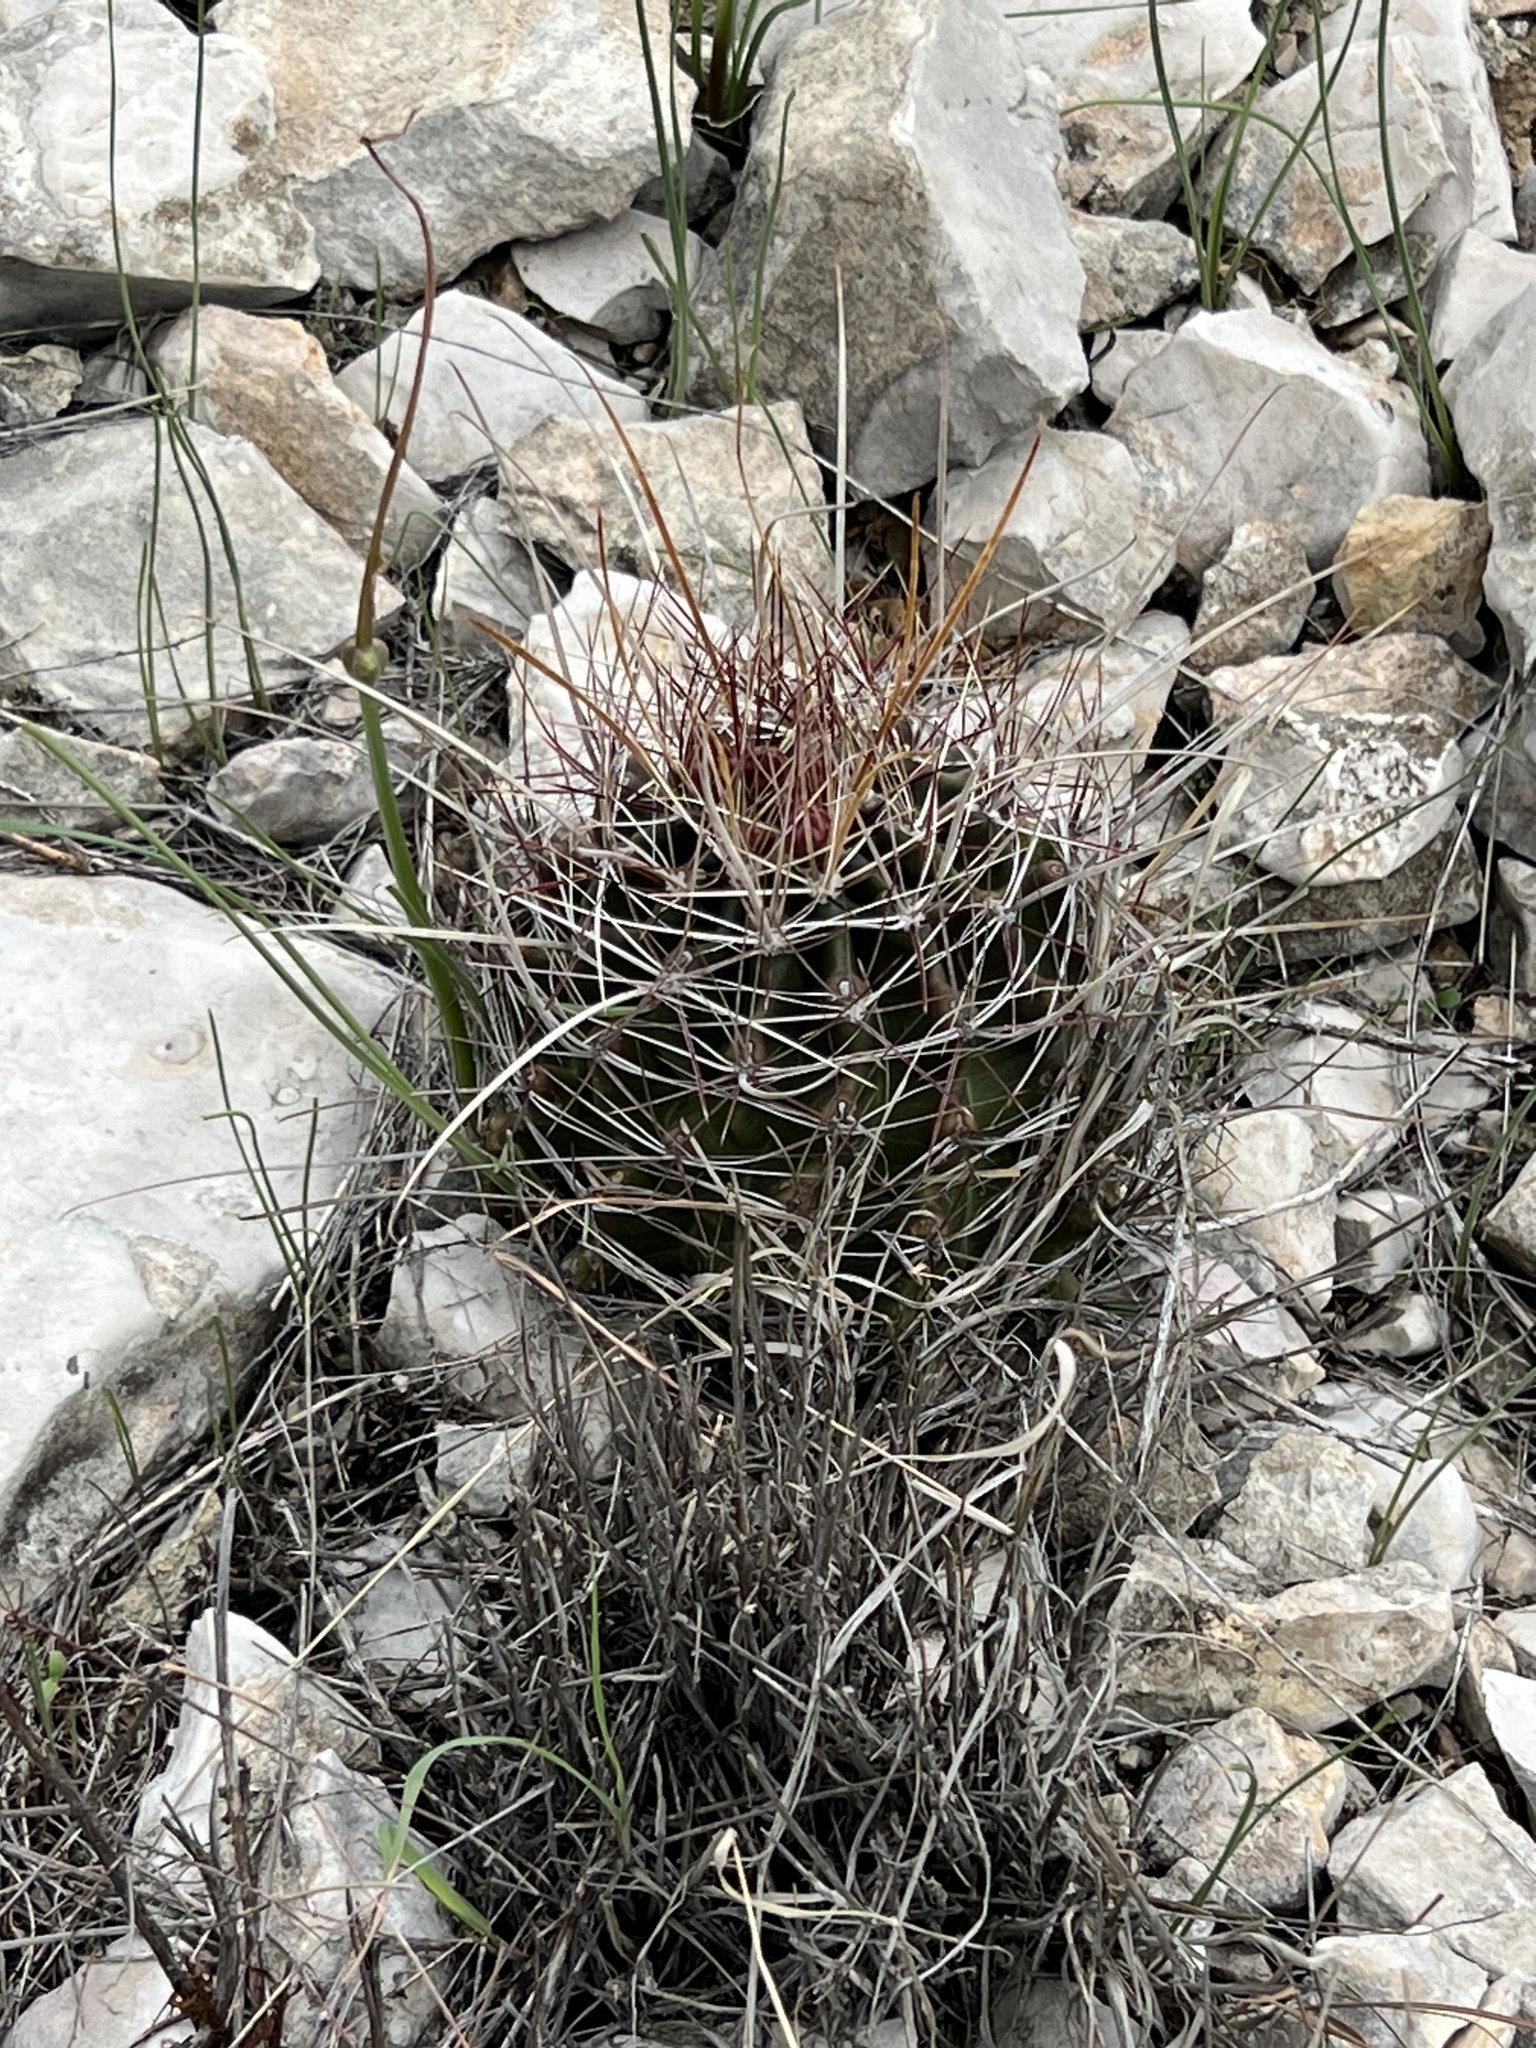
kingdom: Plantae
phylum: Tracheophyta
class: Magnoliopsida
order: Caryophyllales
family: Cactaceae
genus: Bisnaga
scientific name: Bisnaga hamatacantha
